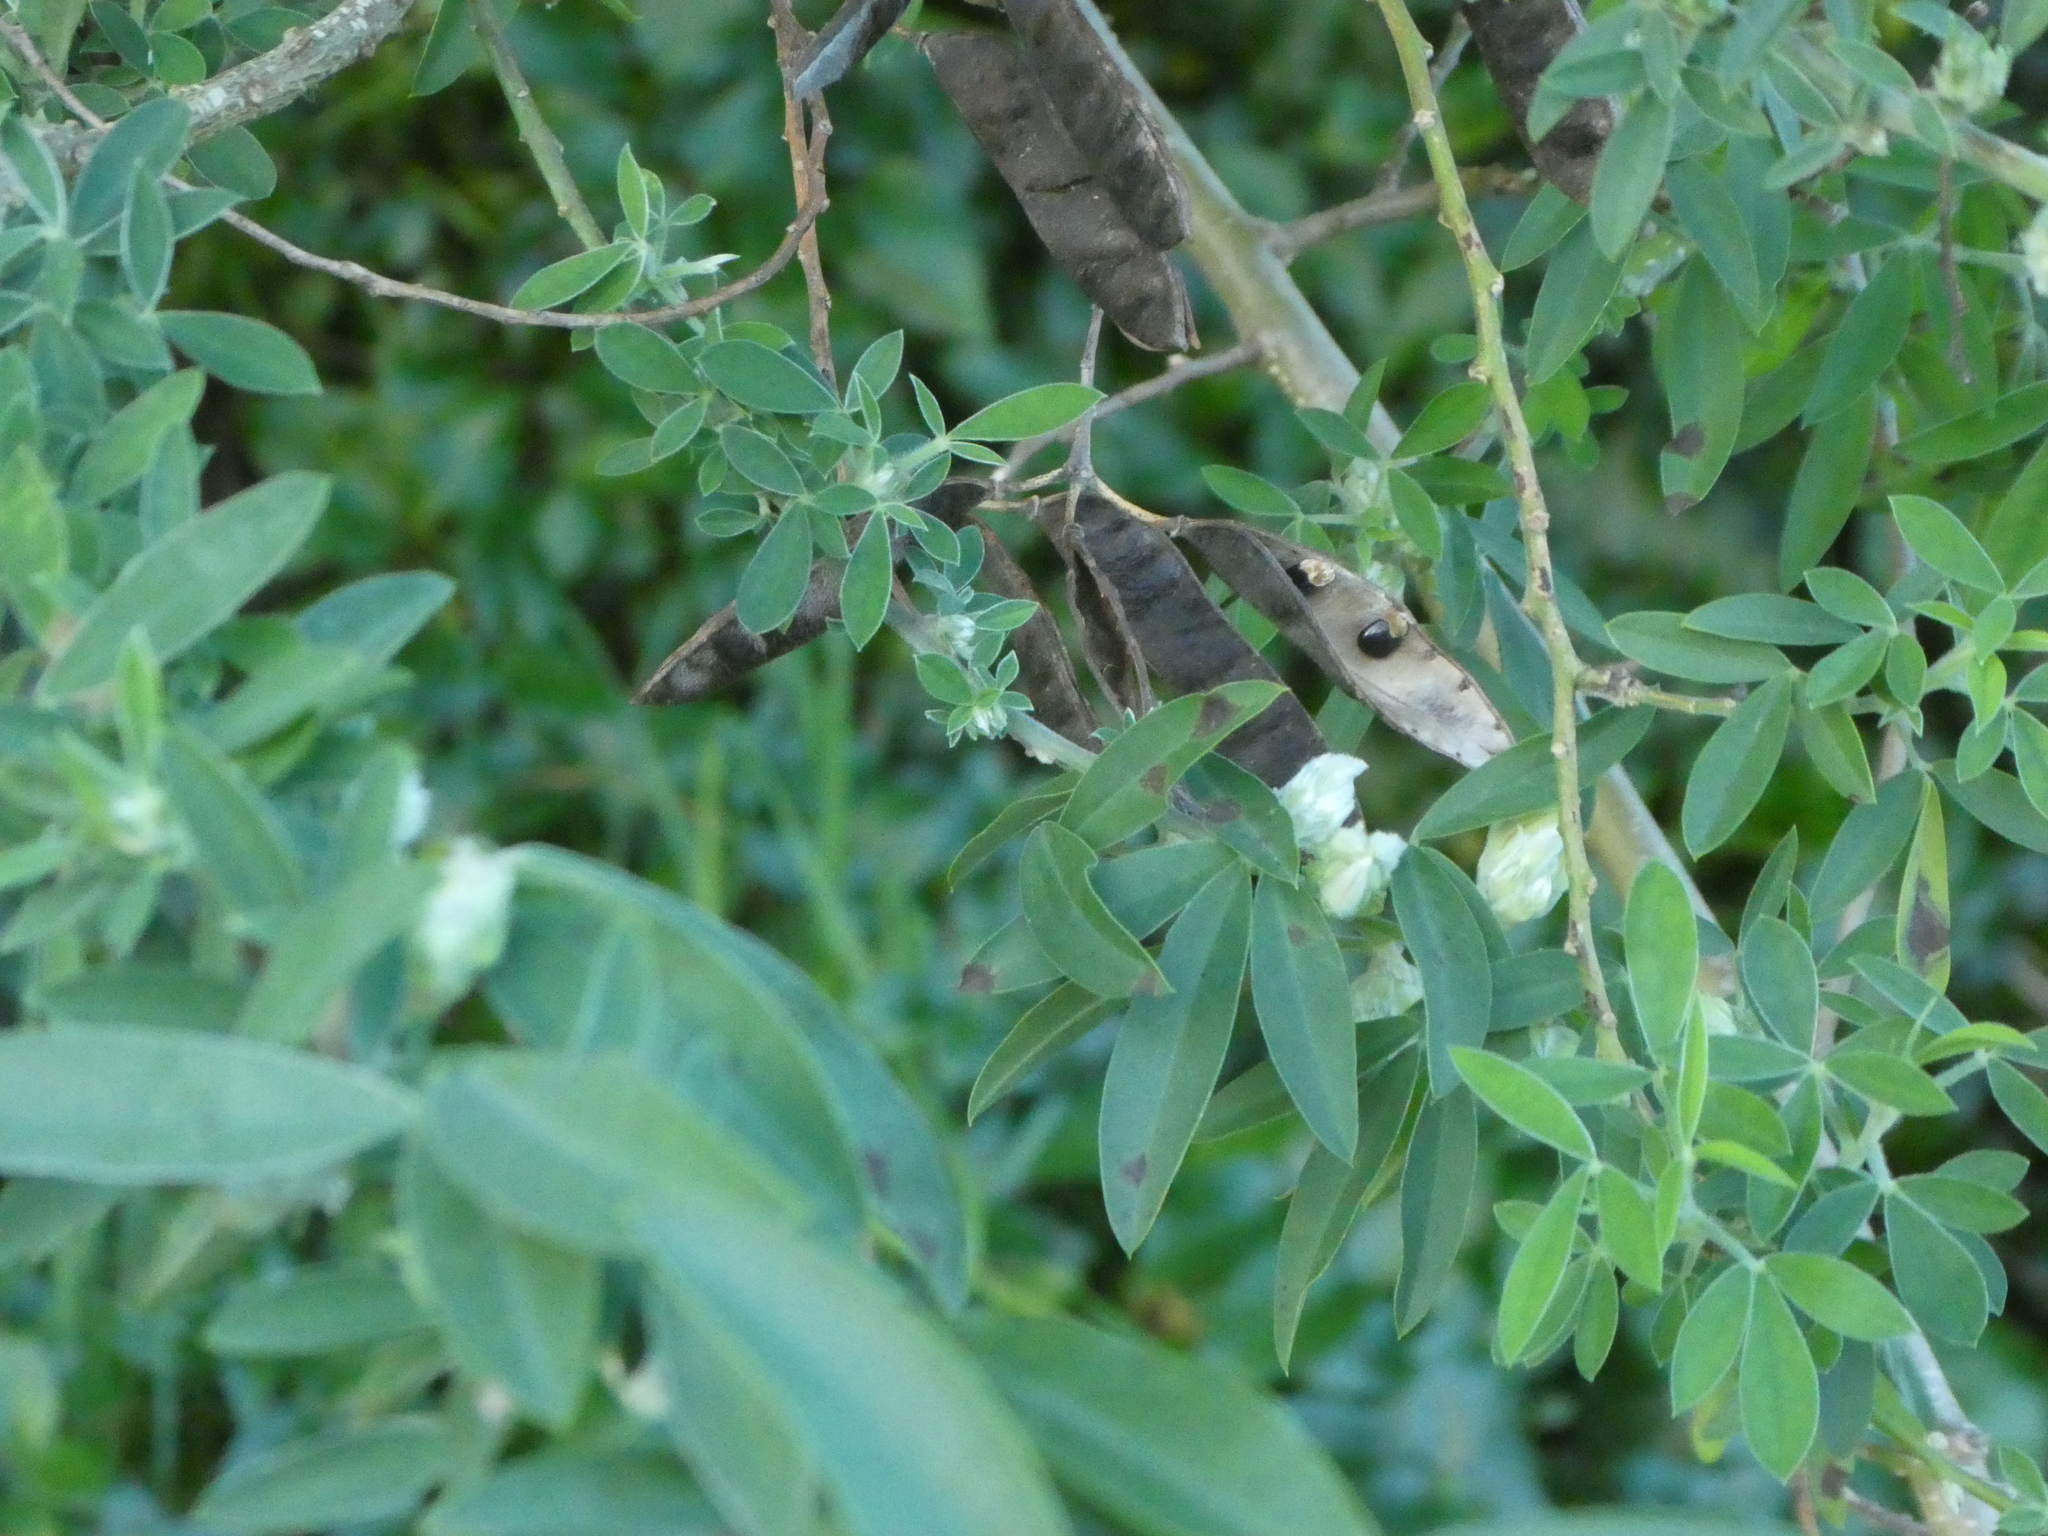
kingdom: Plantae
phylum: Tracheophyta
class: Magnoliopsida
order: Fabales
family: Fabaceae
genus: Chamaecytisus
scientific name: Chamaecytisus prolifer
